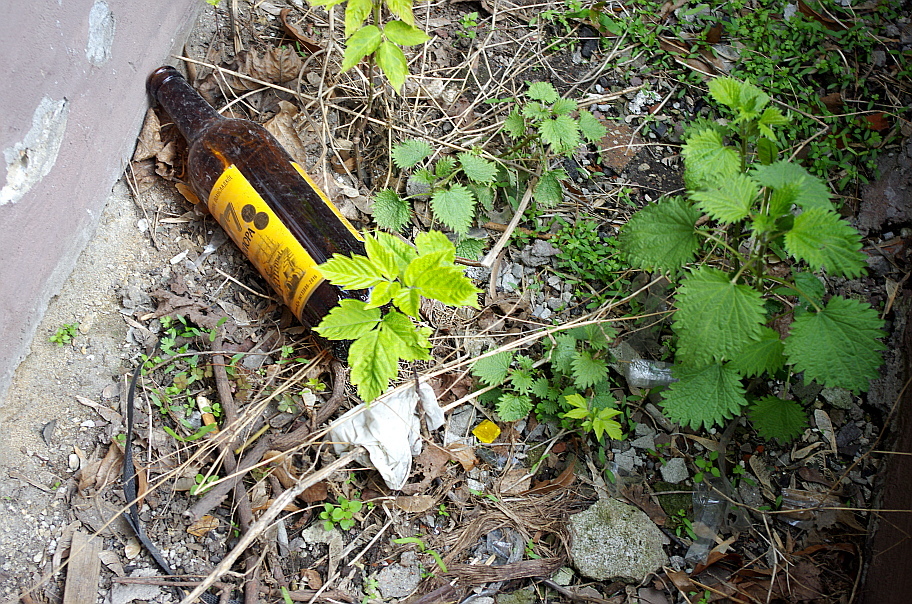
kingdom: Plantae
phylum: Tracheophyta
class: Magnoliopsida
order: Sapindales
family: Sapindaceae
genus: Acer
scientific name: Acer negundo
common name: Ashleaf maple
